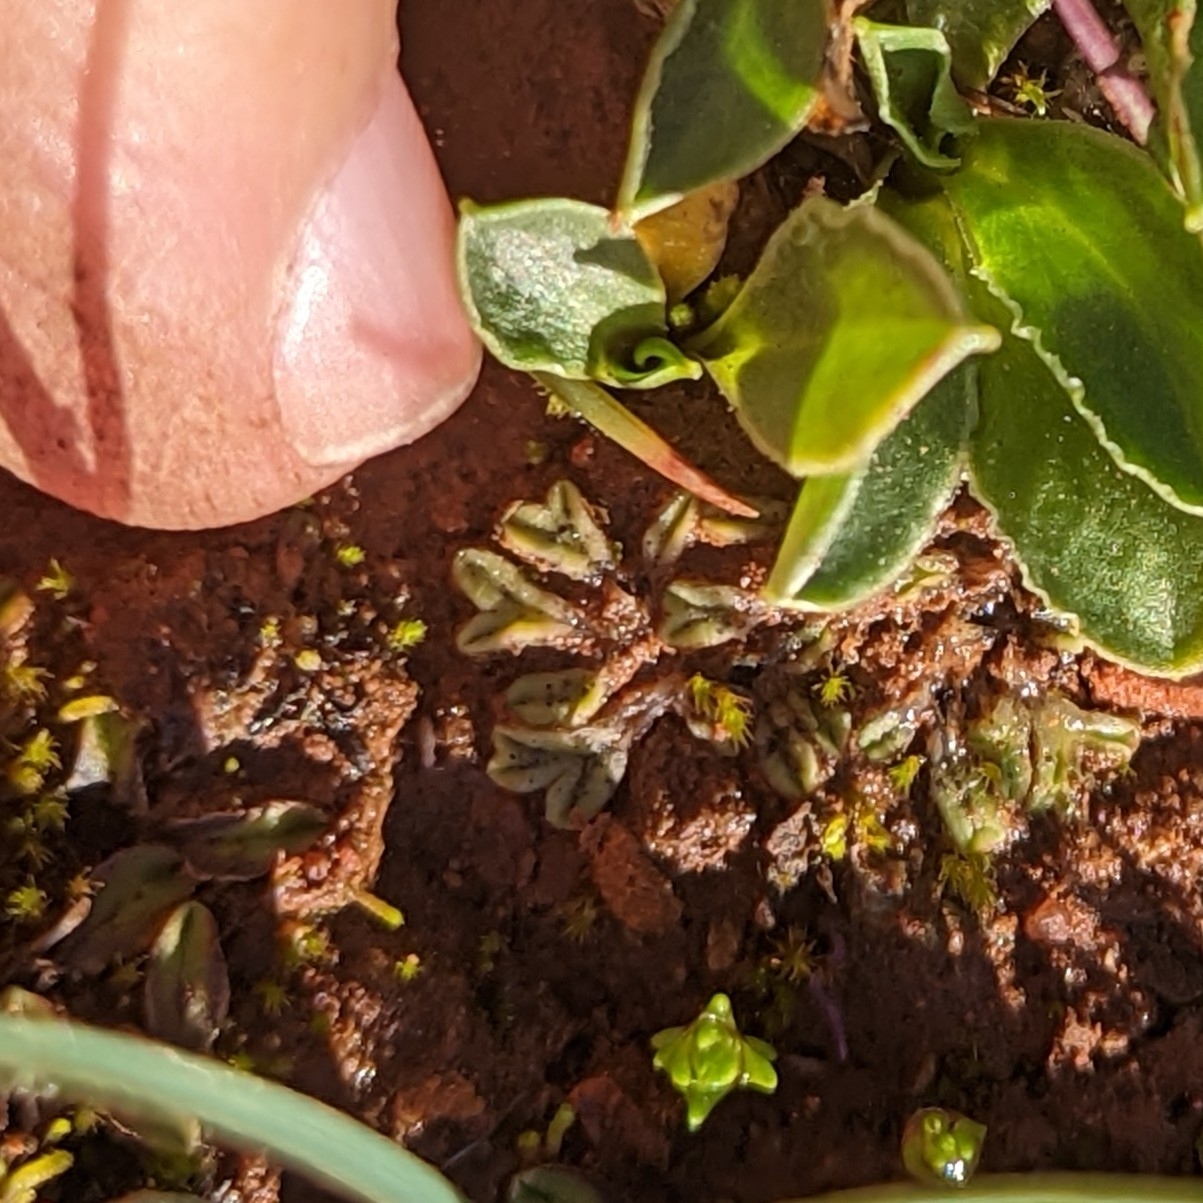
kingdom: Plantae
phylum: Marchantiophyta
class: Marchantiopsida
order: Marchantiales
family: Ricciaceae
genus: Riccia
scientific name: Riccia trichocarpa
